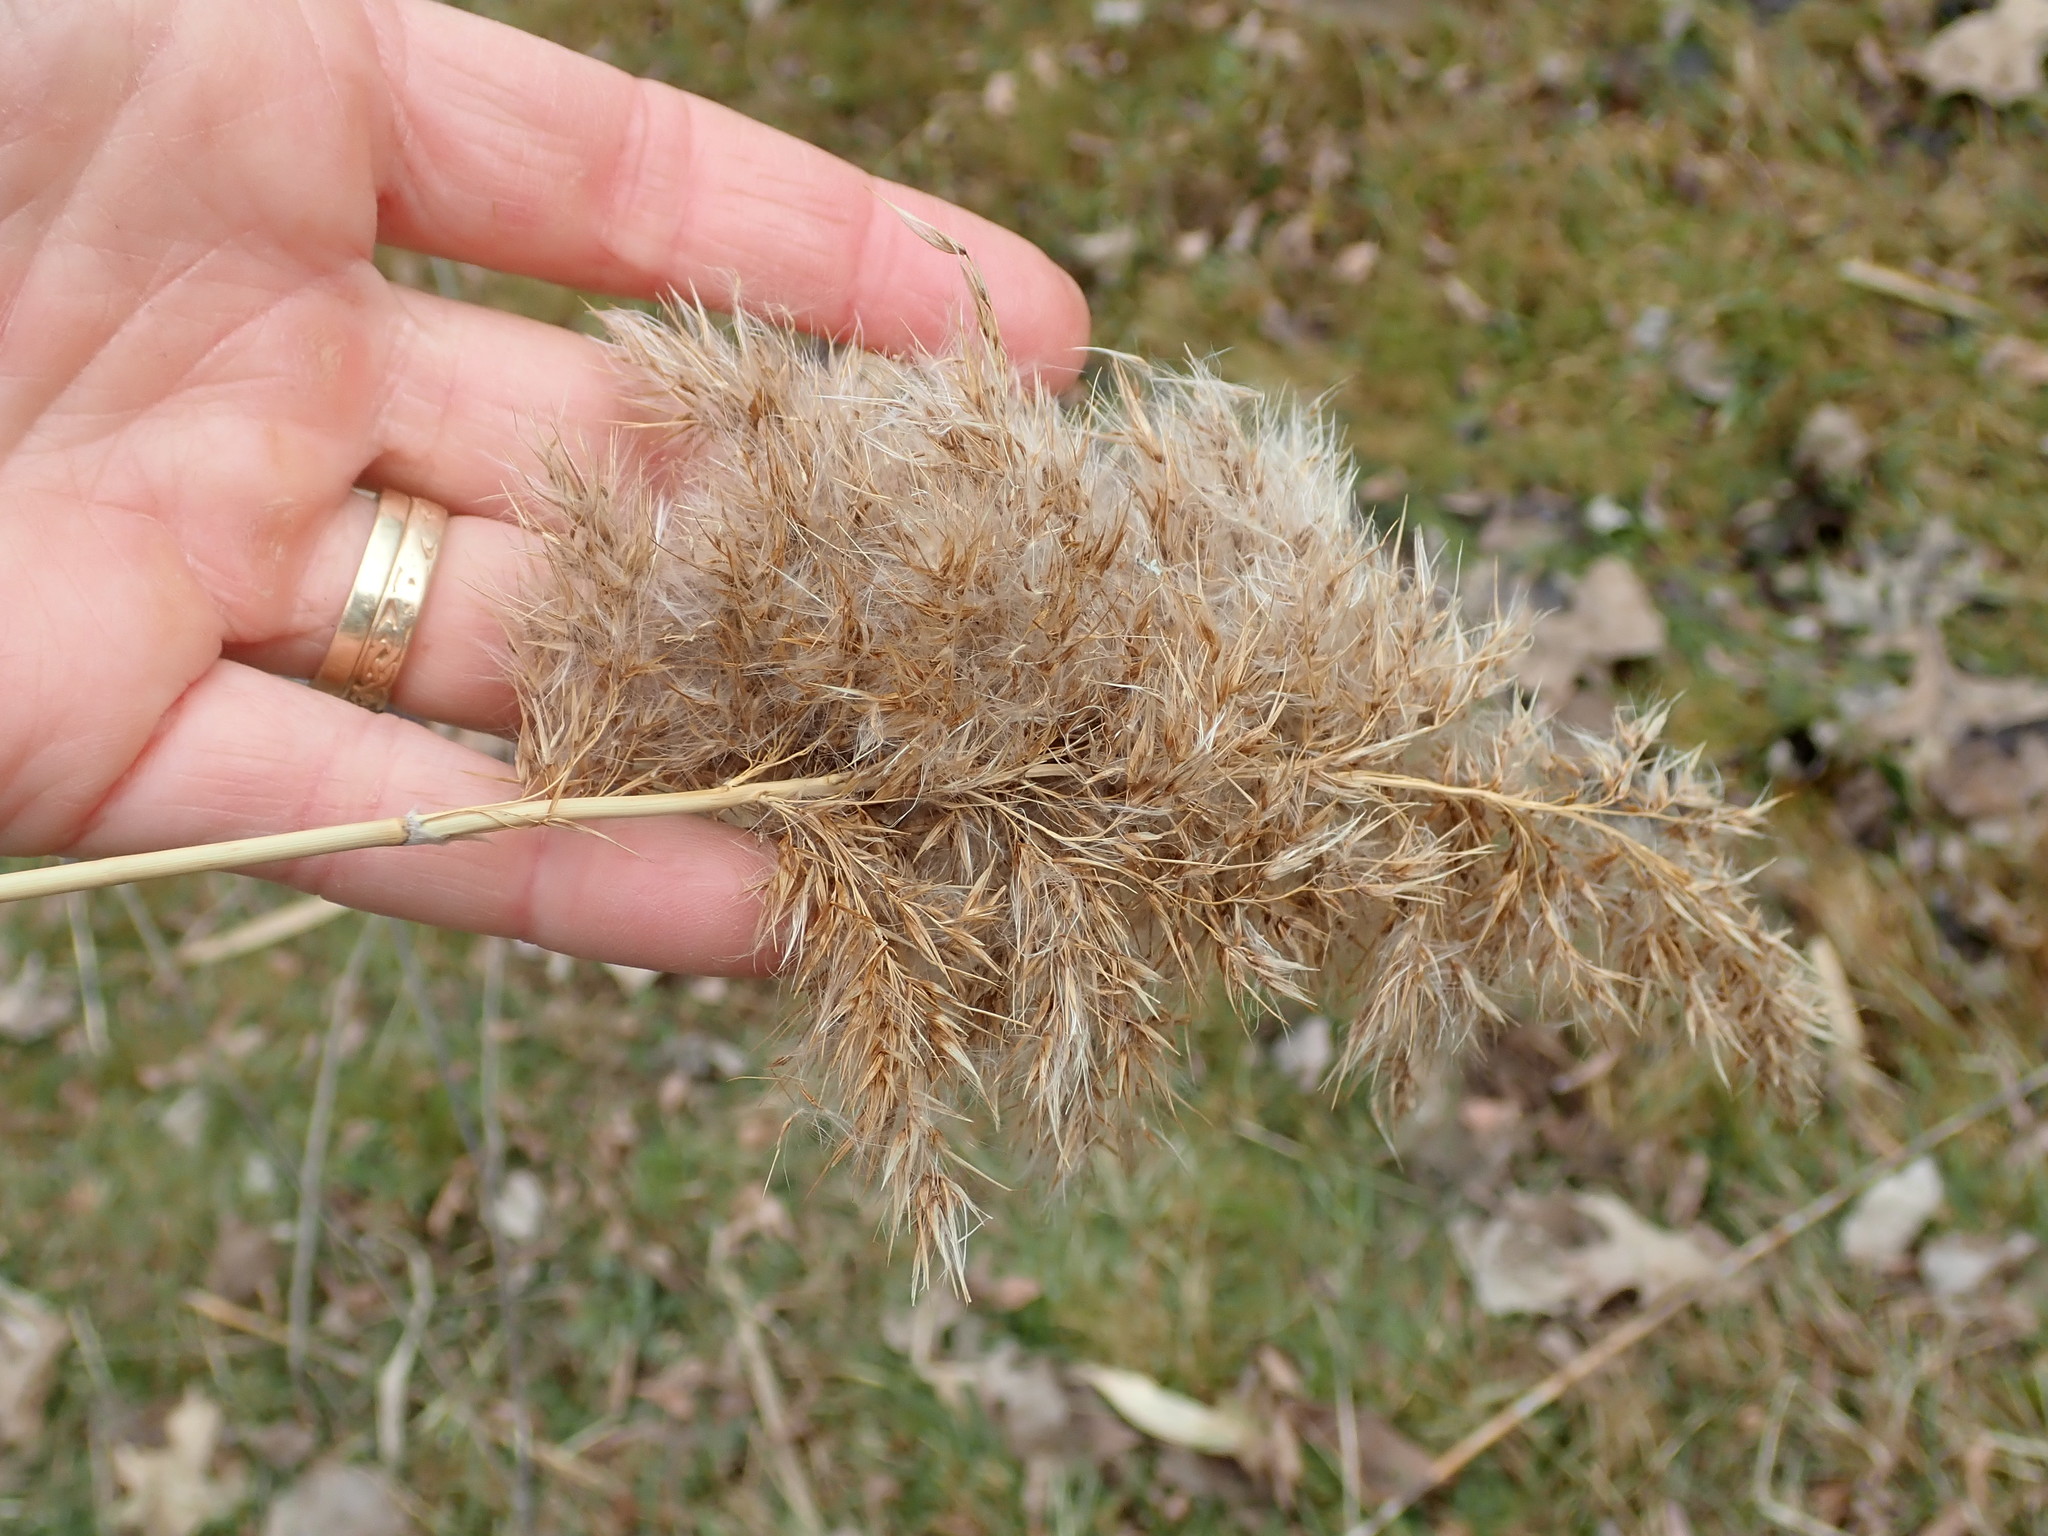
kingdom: Plantae
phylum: Tracheophyta
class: Liliopsida
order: Poales
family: Poaceae
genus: Phragmites
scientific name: Phragmites australis
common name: Common reed
